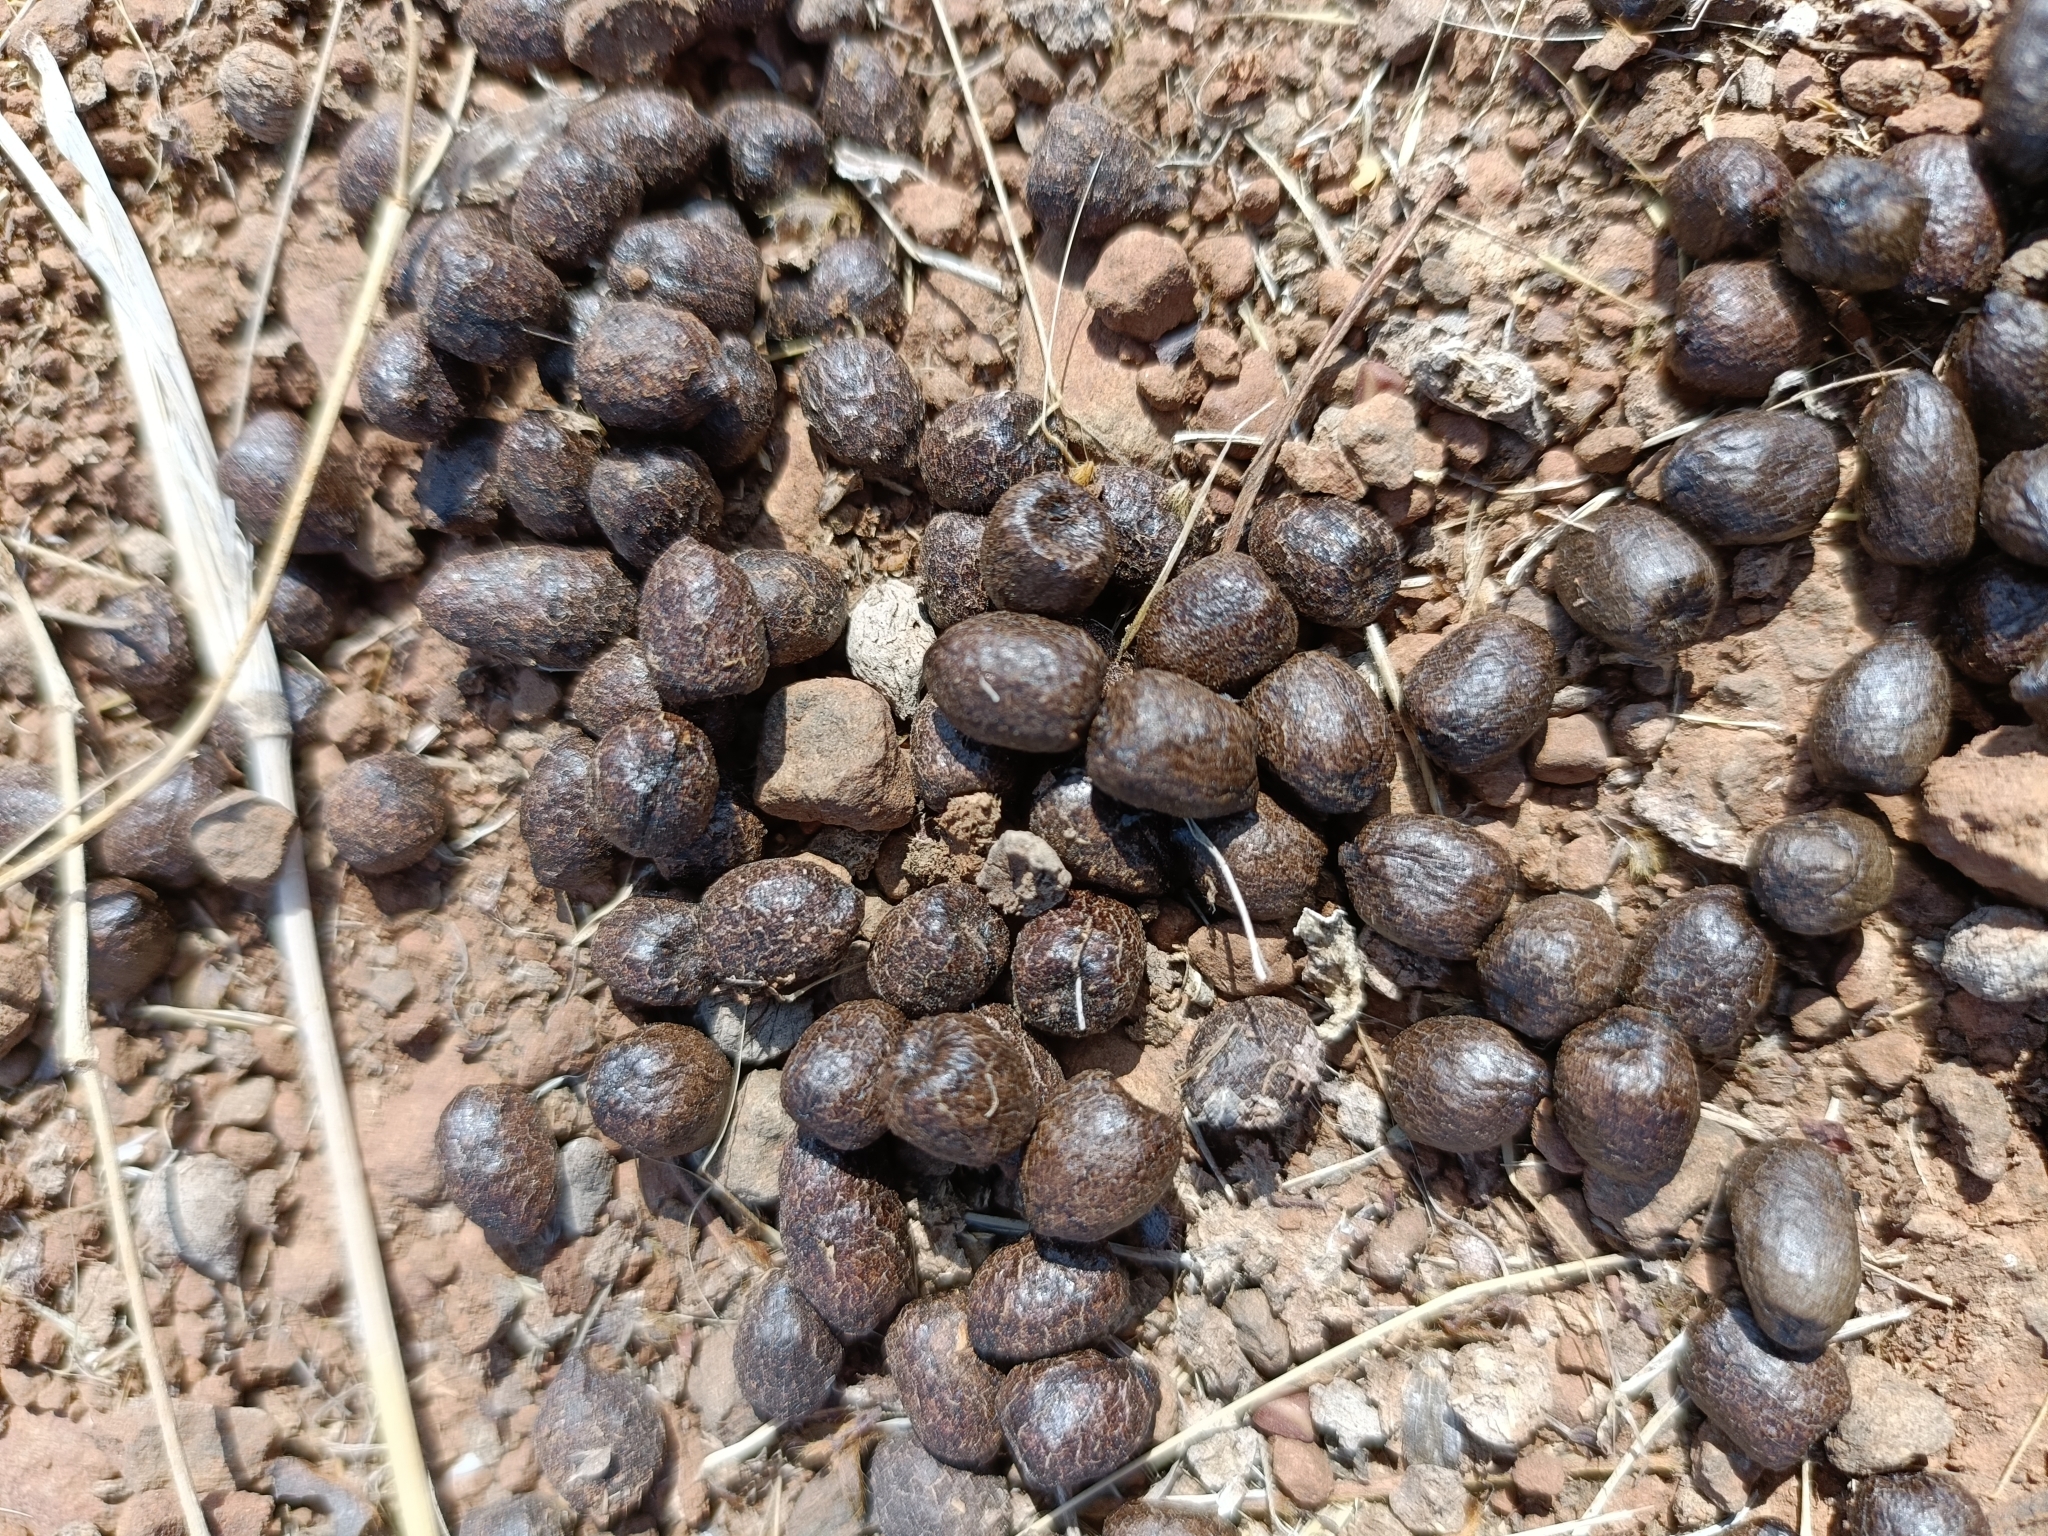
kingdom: Animalia
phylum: Chordata
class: Mammalia
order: Artiodactyla
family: Bovidae
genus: Gazella
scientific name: Gazella bennettii
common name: Indian gazelle
